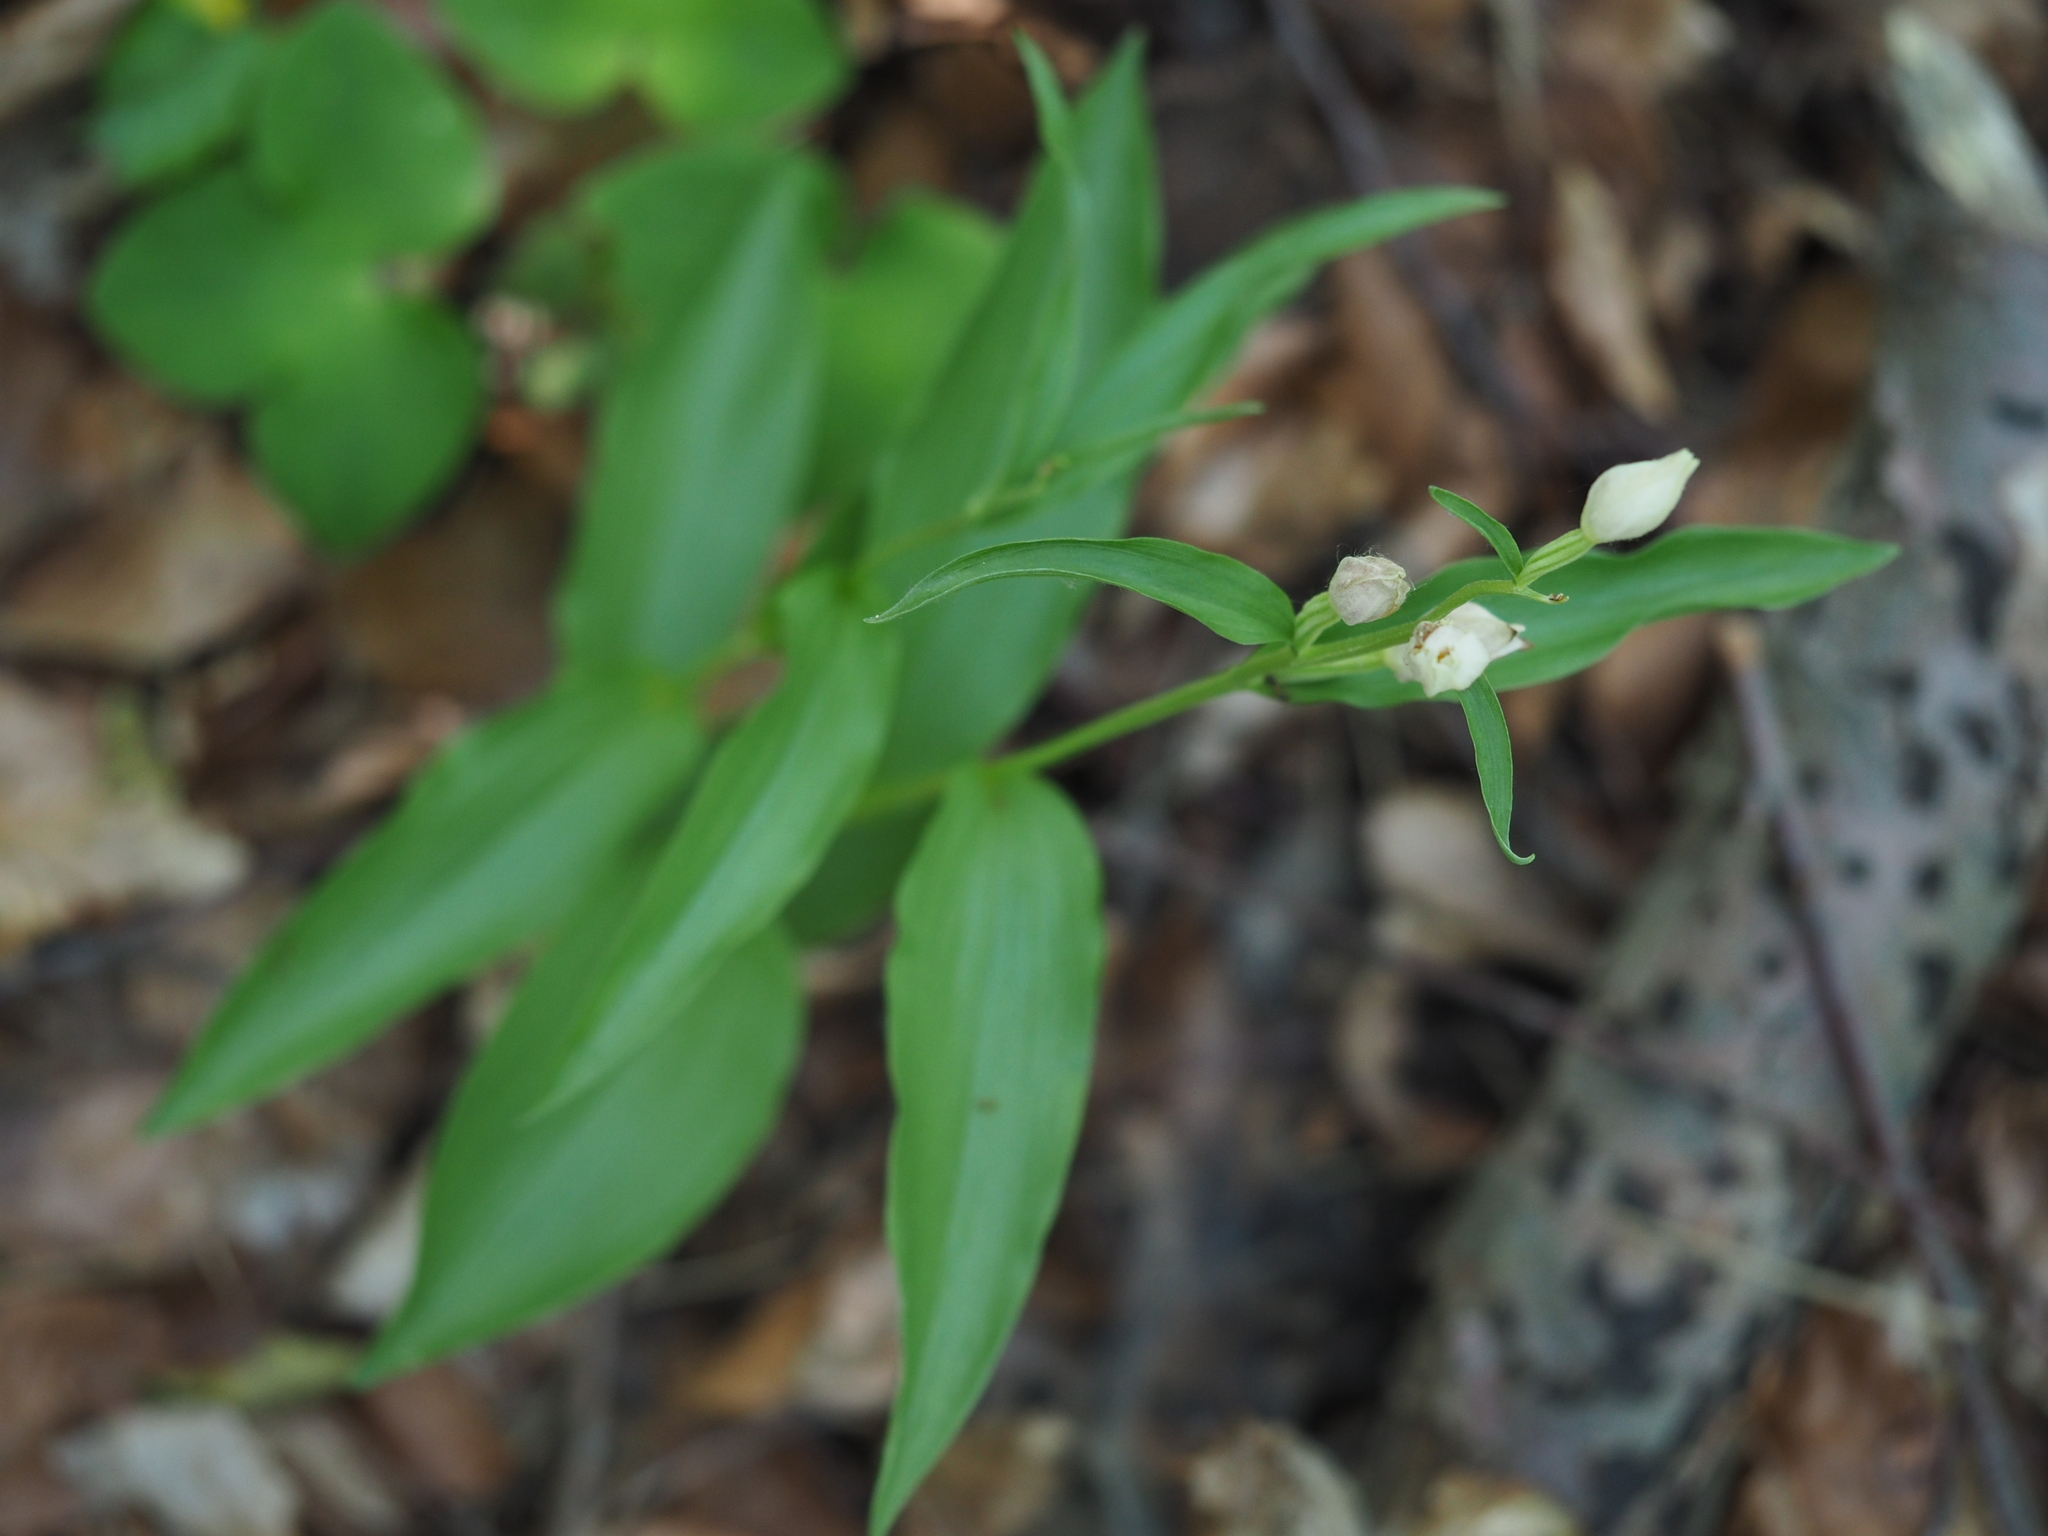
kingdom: Plantae
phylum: Tracheophyta
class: Liliopsida
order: Asparagales
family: Orchidaceae
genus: Cephalanthera
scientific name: Cephalanthera damasonium
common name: White helleborine
